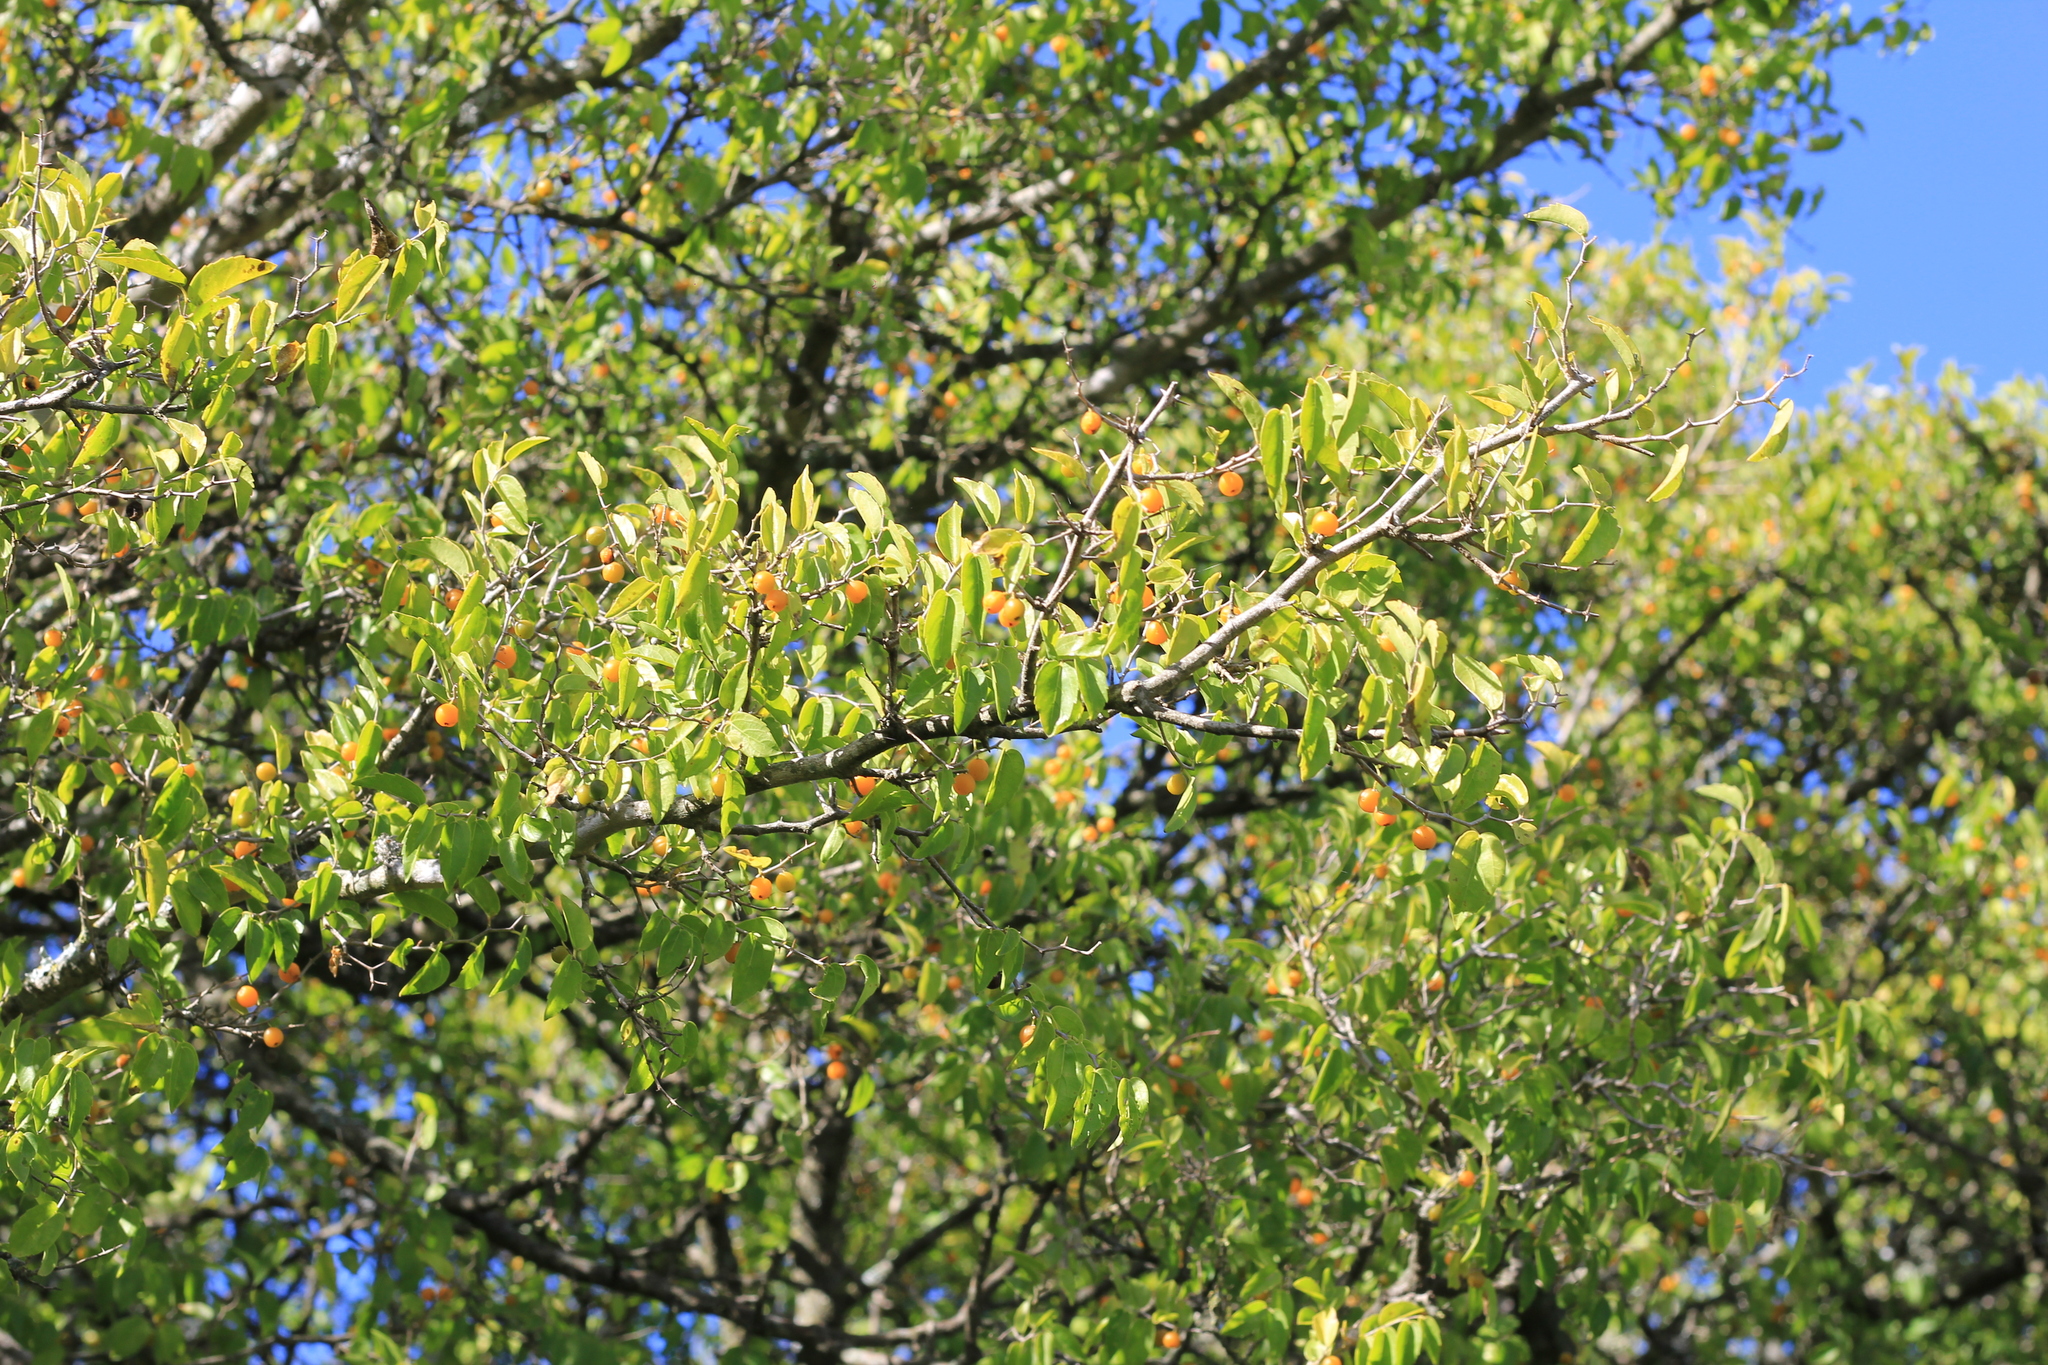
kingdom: Plantae
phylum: Tracheophyta
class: Magnoliopsida
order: Rosales
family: Cannabaceae
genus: Celtis
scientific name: Celtis tala
